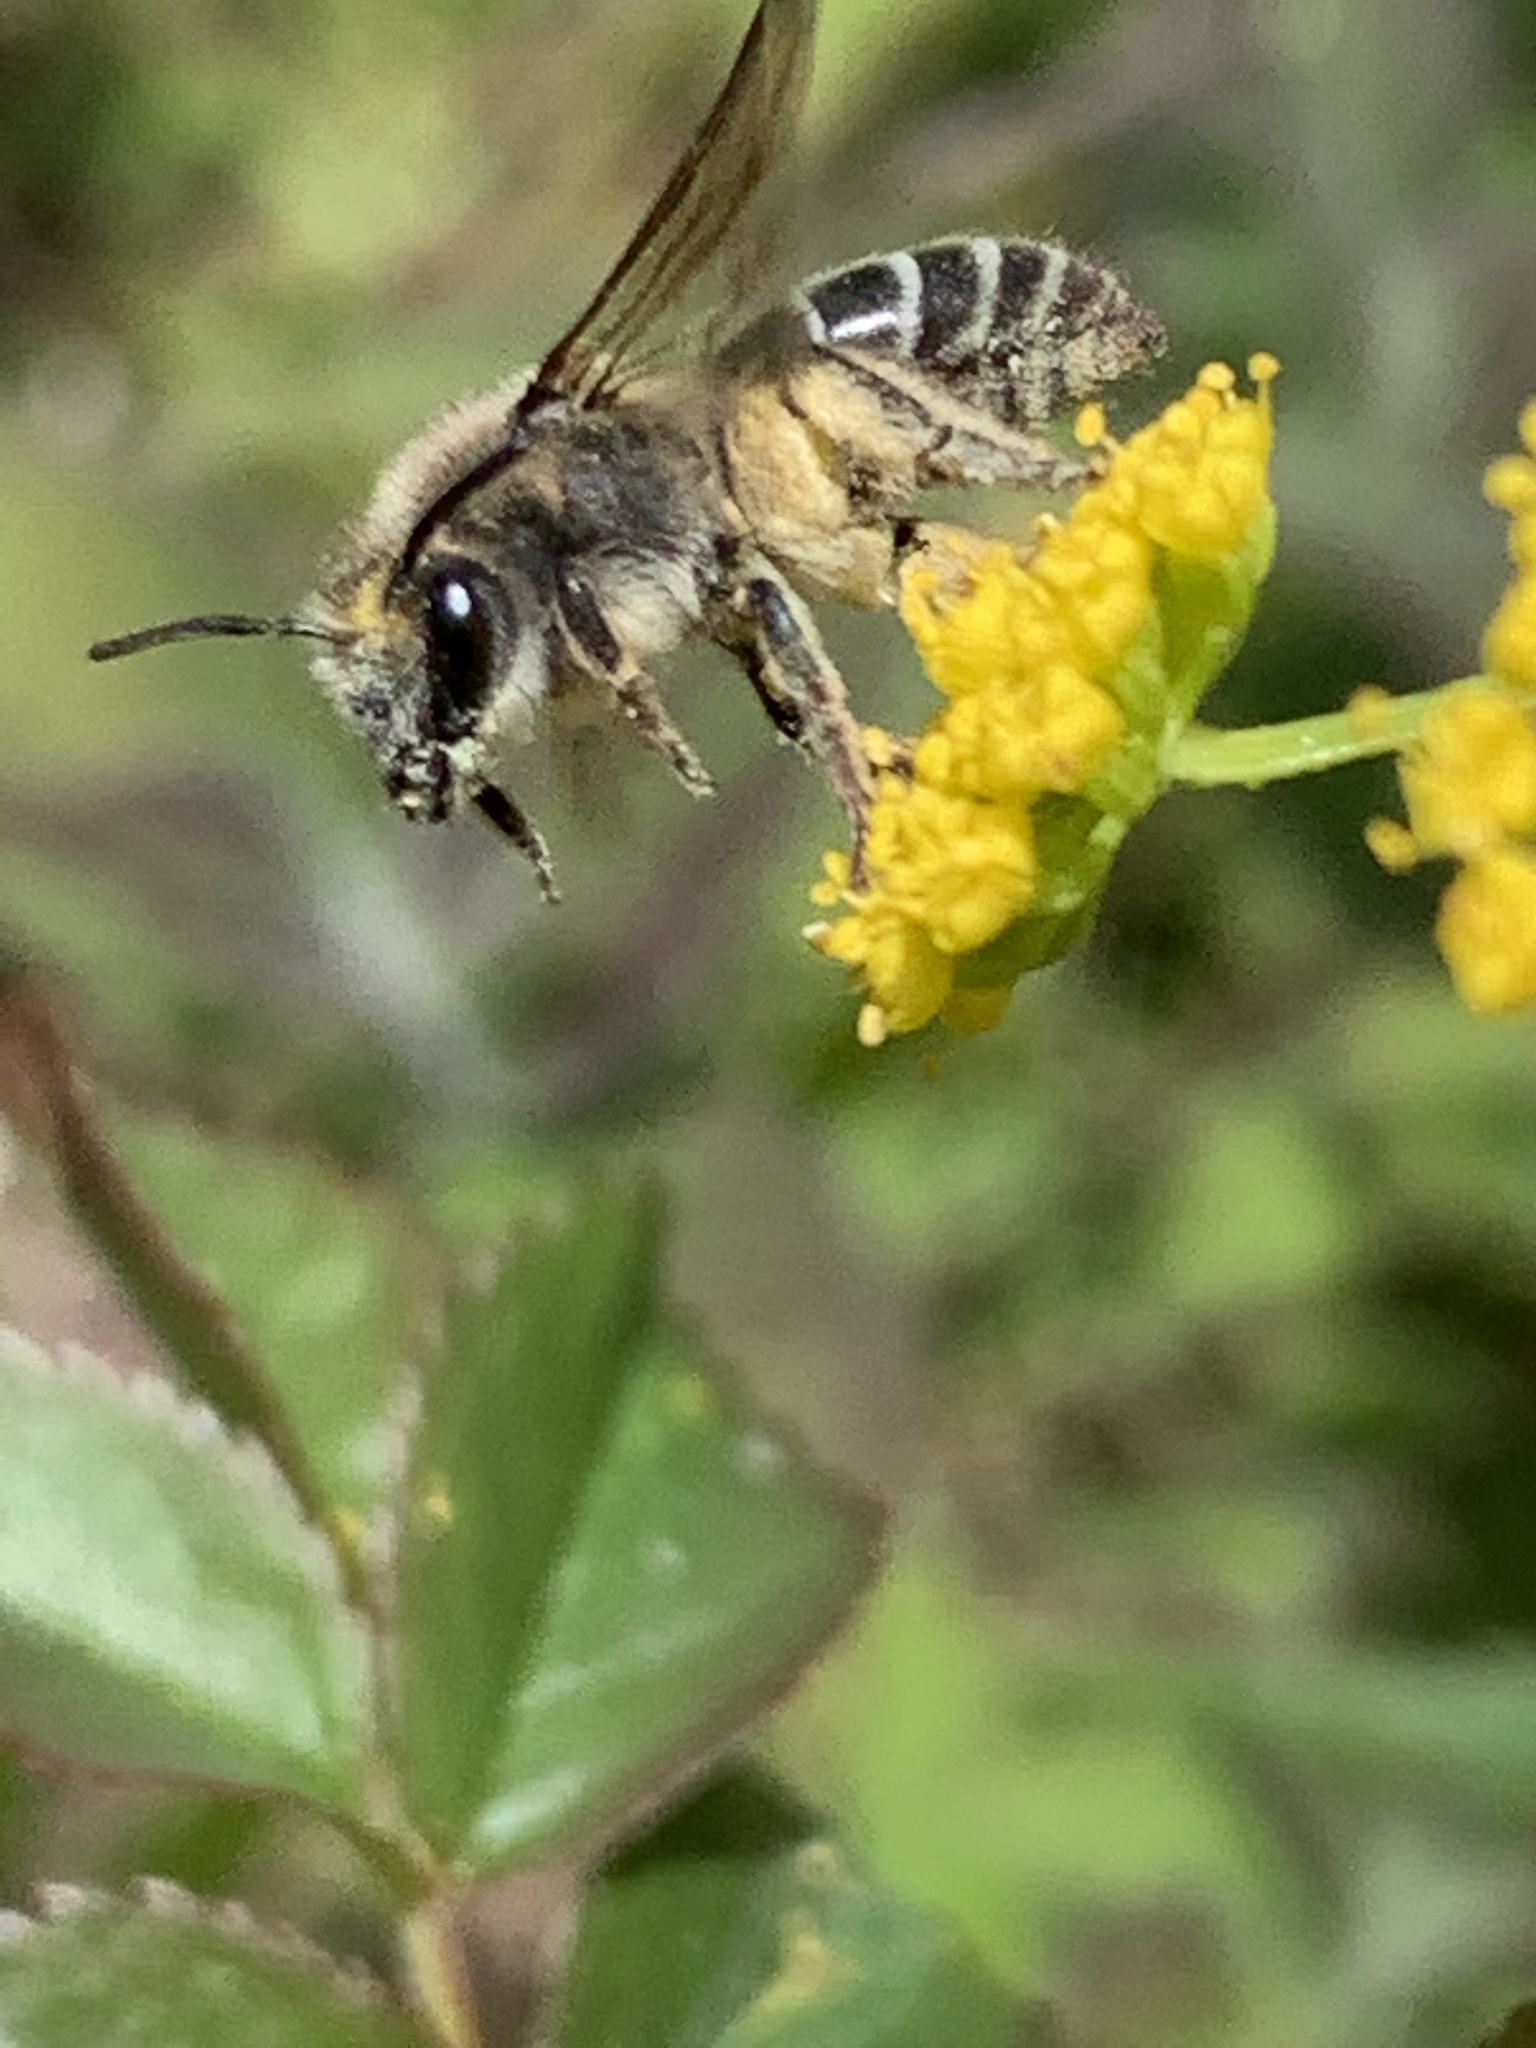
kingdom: Animalia
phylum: Arthropoda
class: Insecta
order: Hymenoptera
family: Colletidae
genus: Colletes
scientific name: Colletes inaequalis
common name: Unequal cellophane bee
